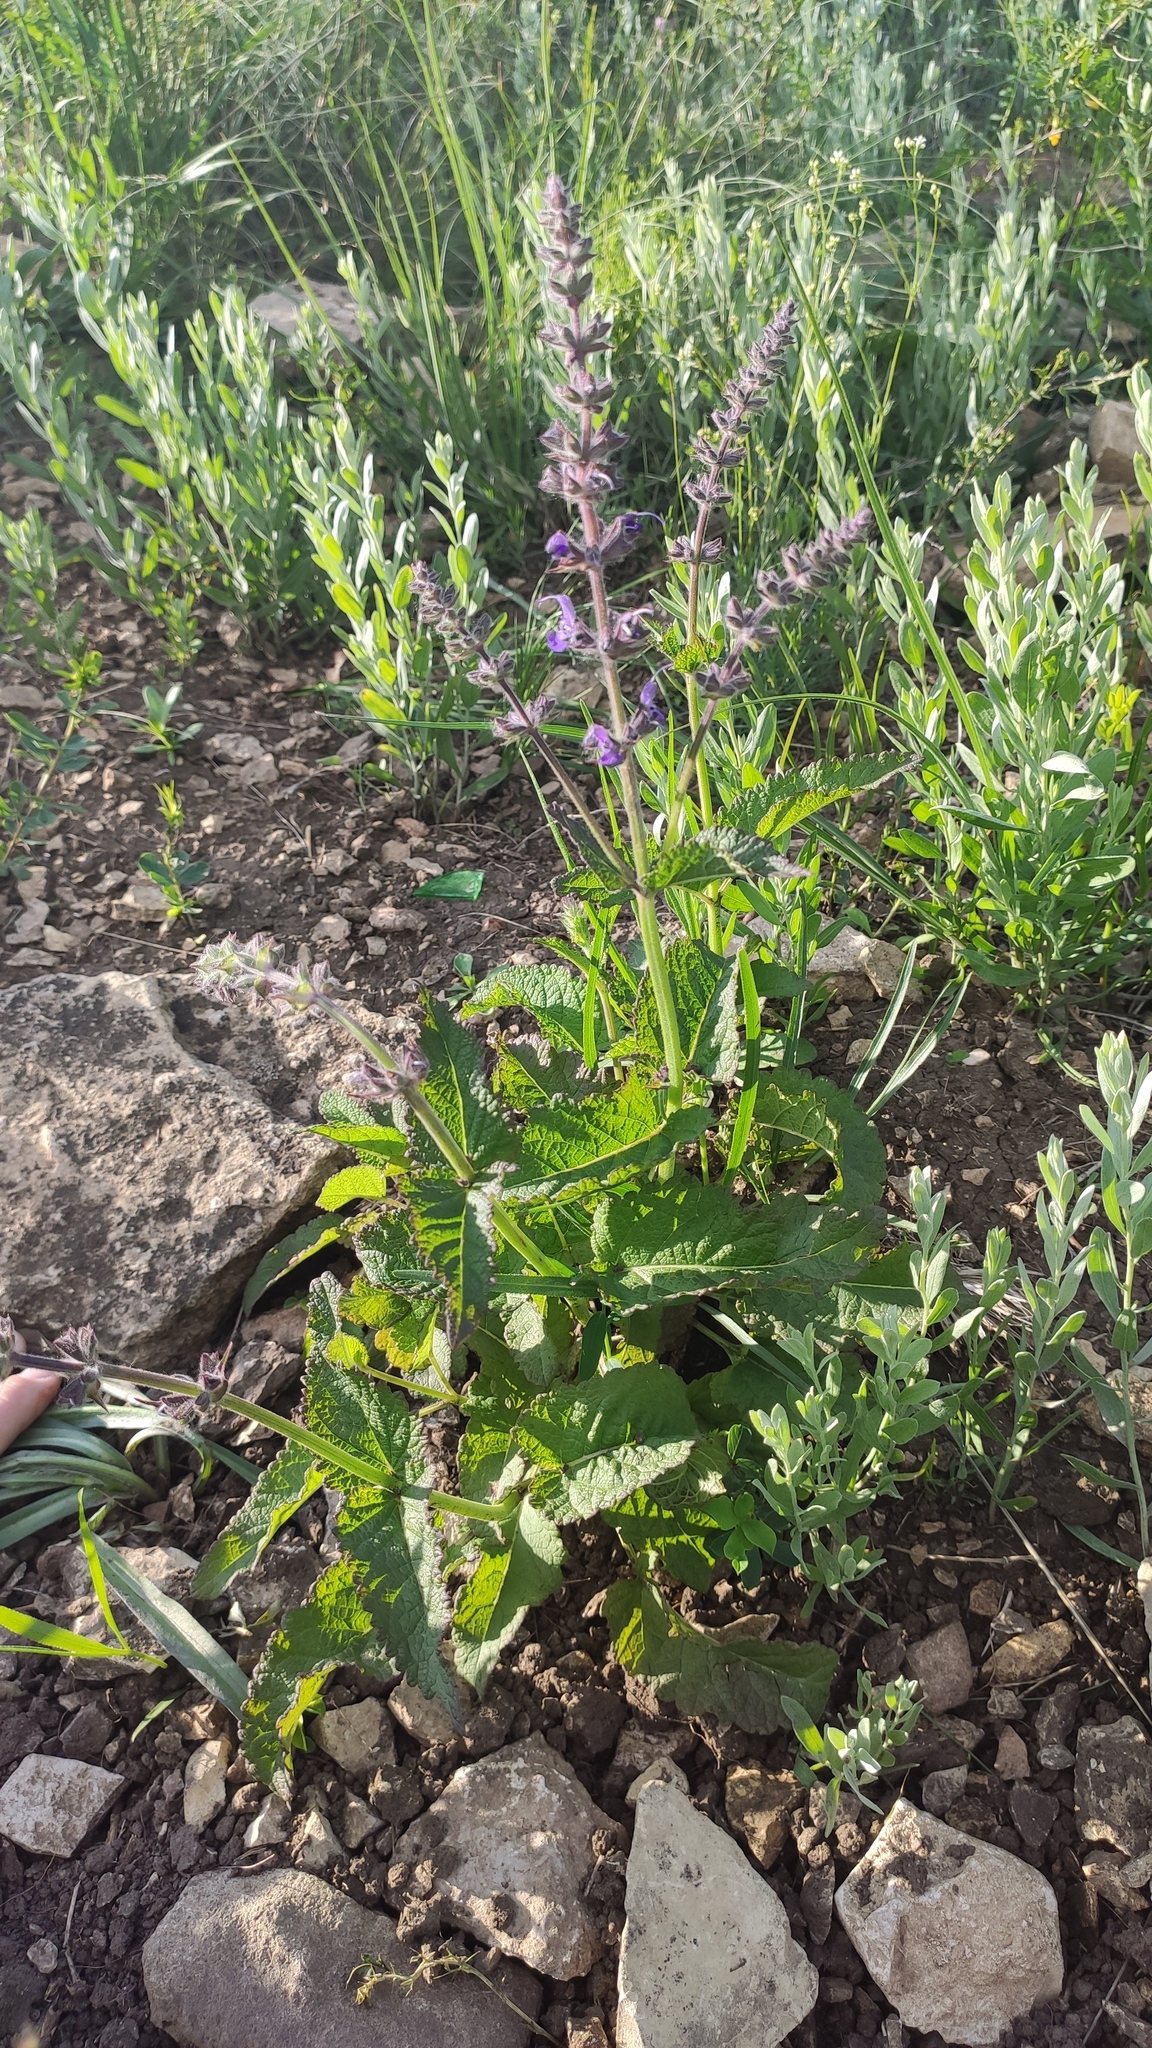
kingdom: Plantae
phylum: Tracheophyta
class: Magnoliopsida
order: Lamiales
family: Lamiaceae
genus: Salvia
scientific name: Salvia dumetorum
